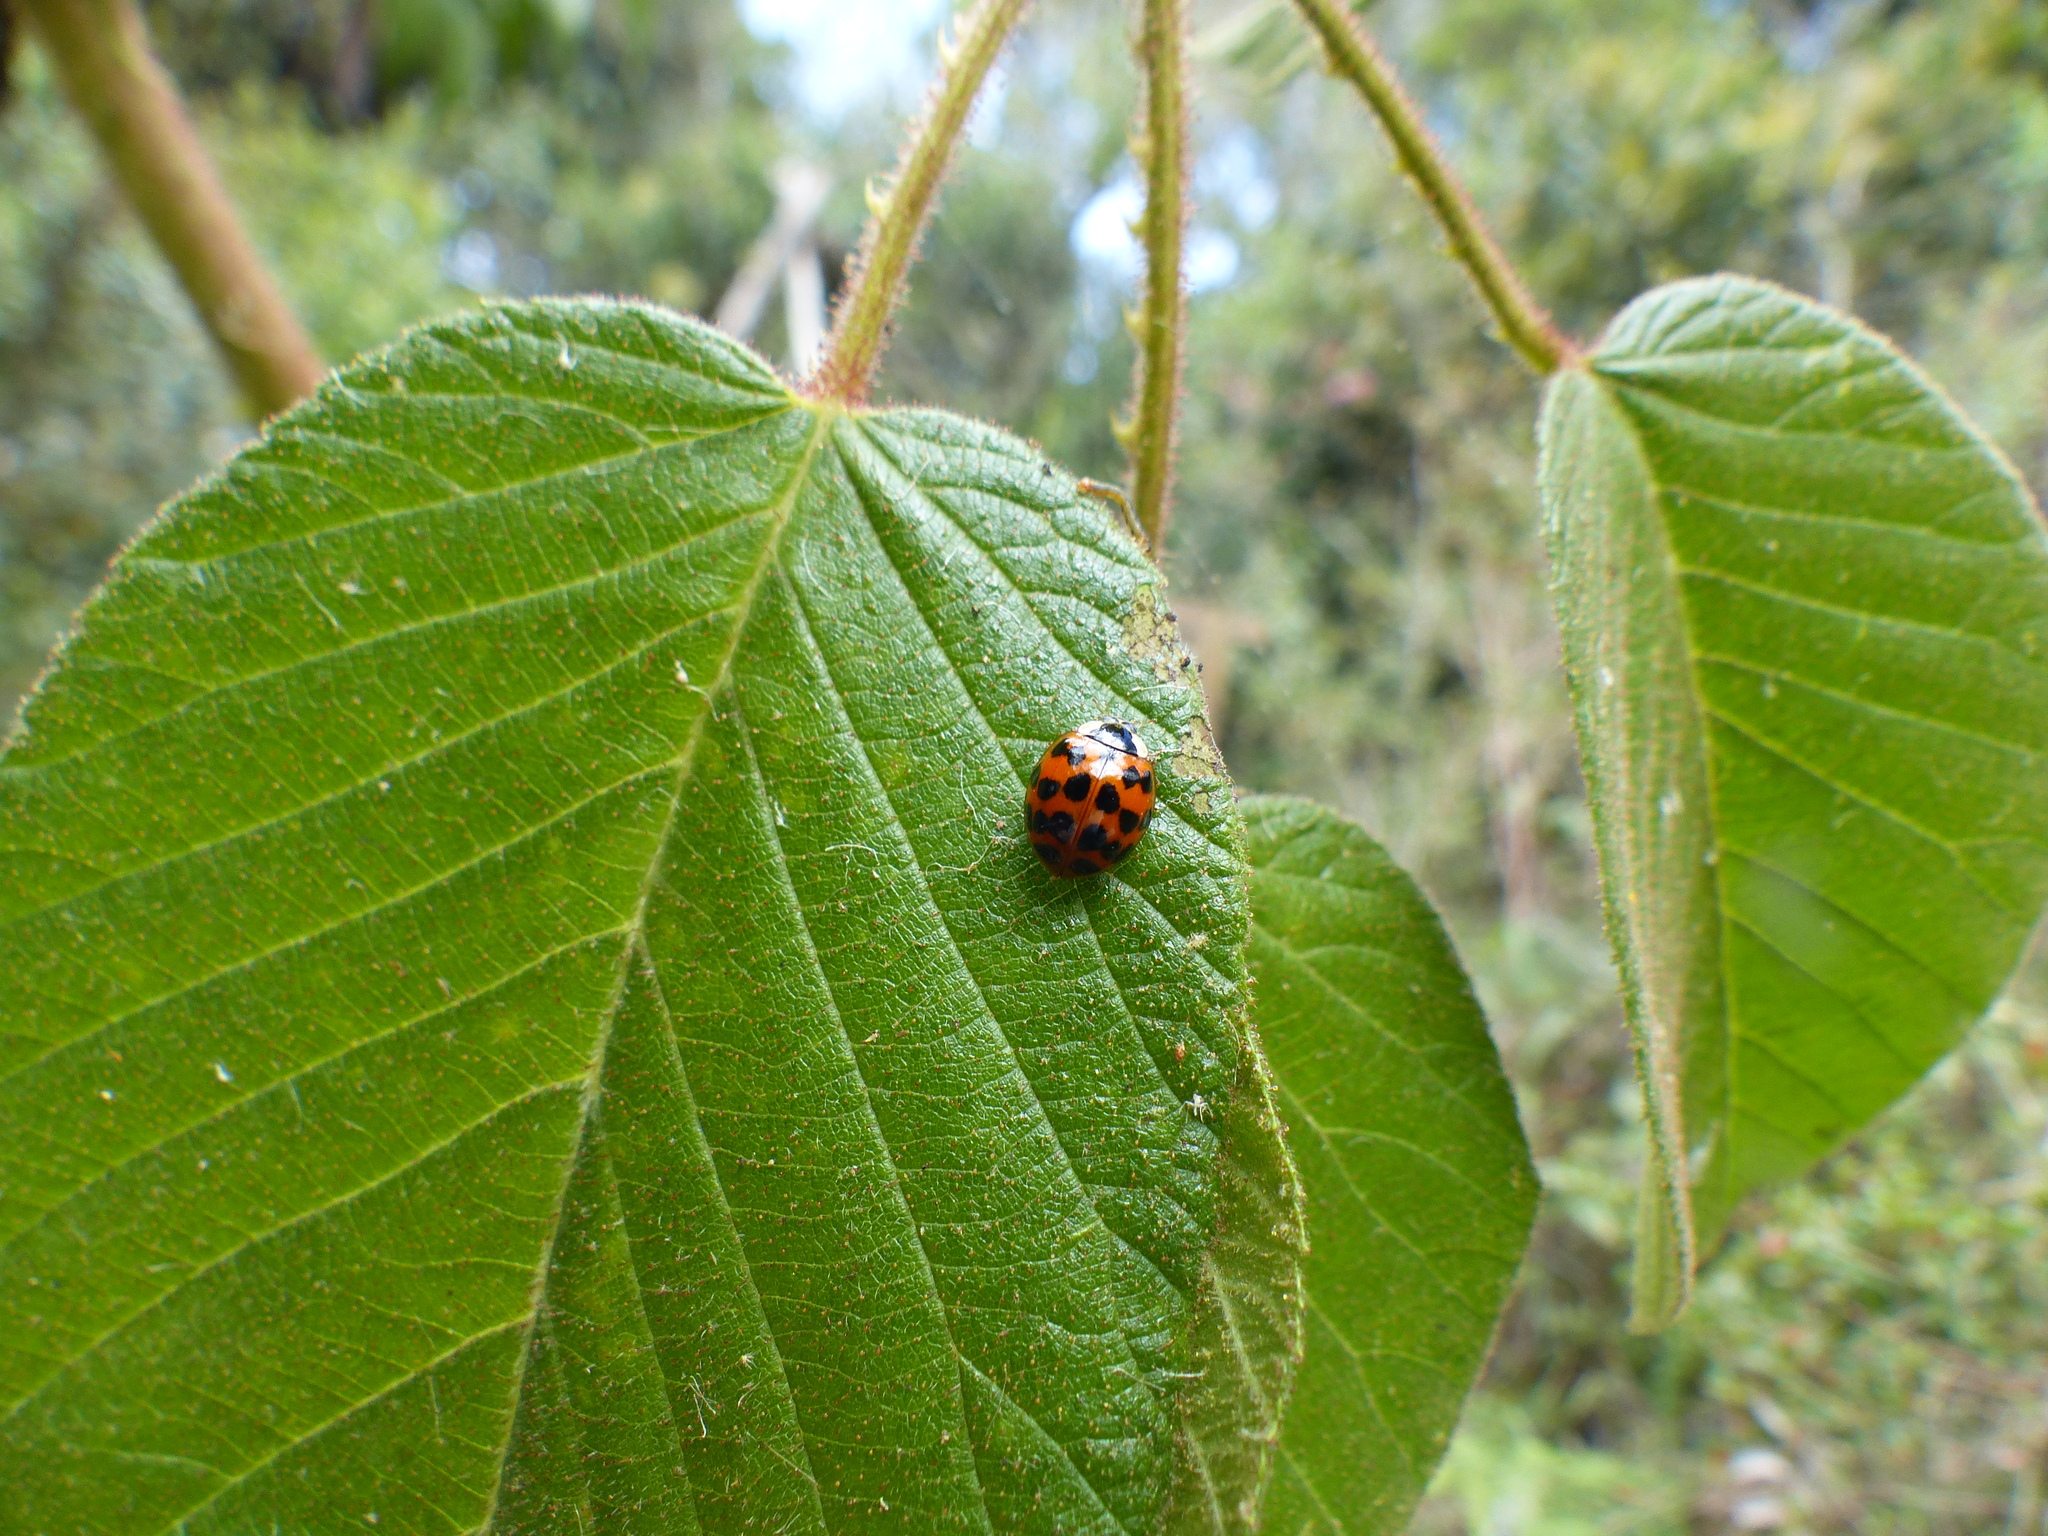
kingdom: Animalia
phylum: Arthropoda
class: Insecta
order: Coleoptera
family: Coccinellidae
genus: Harmonia
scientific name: Harmonia axyridis
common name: Harlequin ladybird
